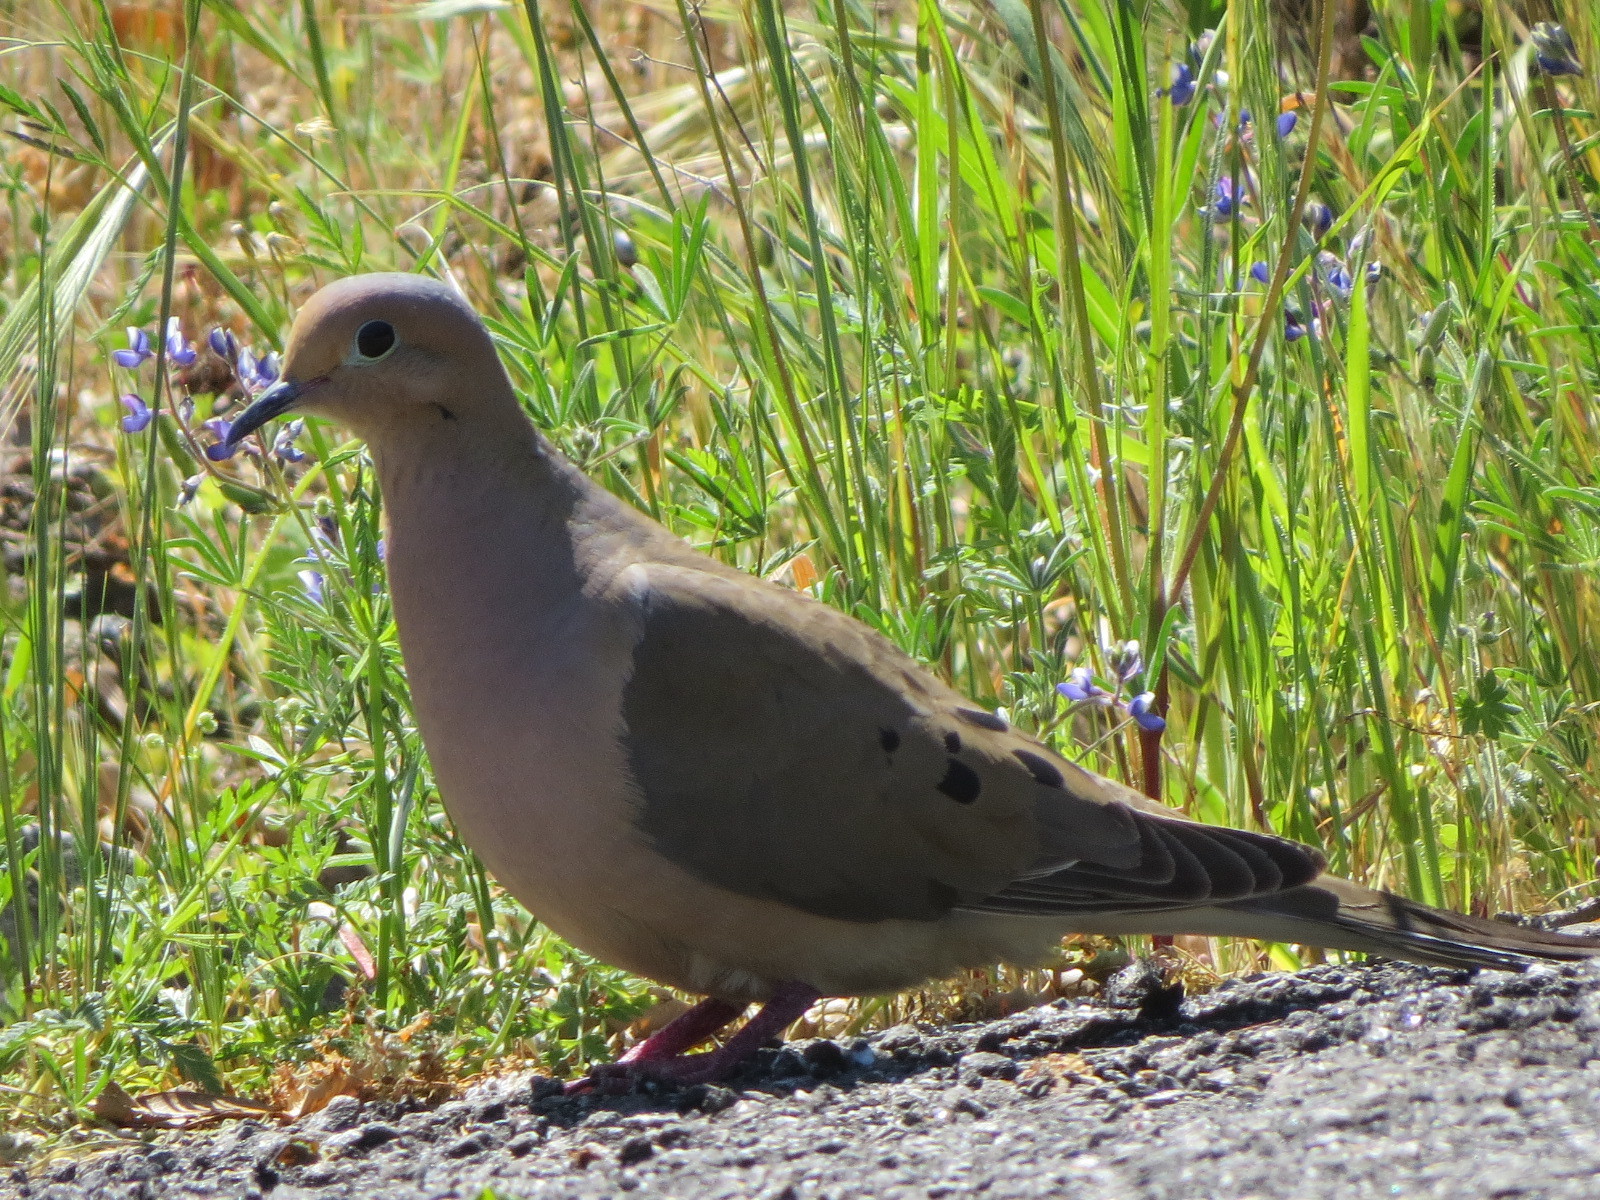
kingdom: Animalia
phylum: Chordata
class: Aves
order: Columbiformes
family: Columbidae
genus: Zenaida
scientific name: Zenaida macroura
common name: Mourning dove
